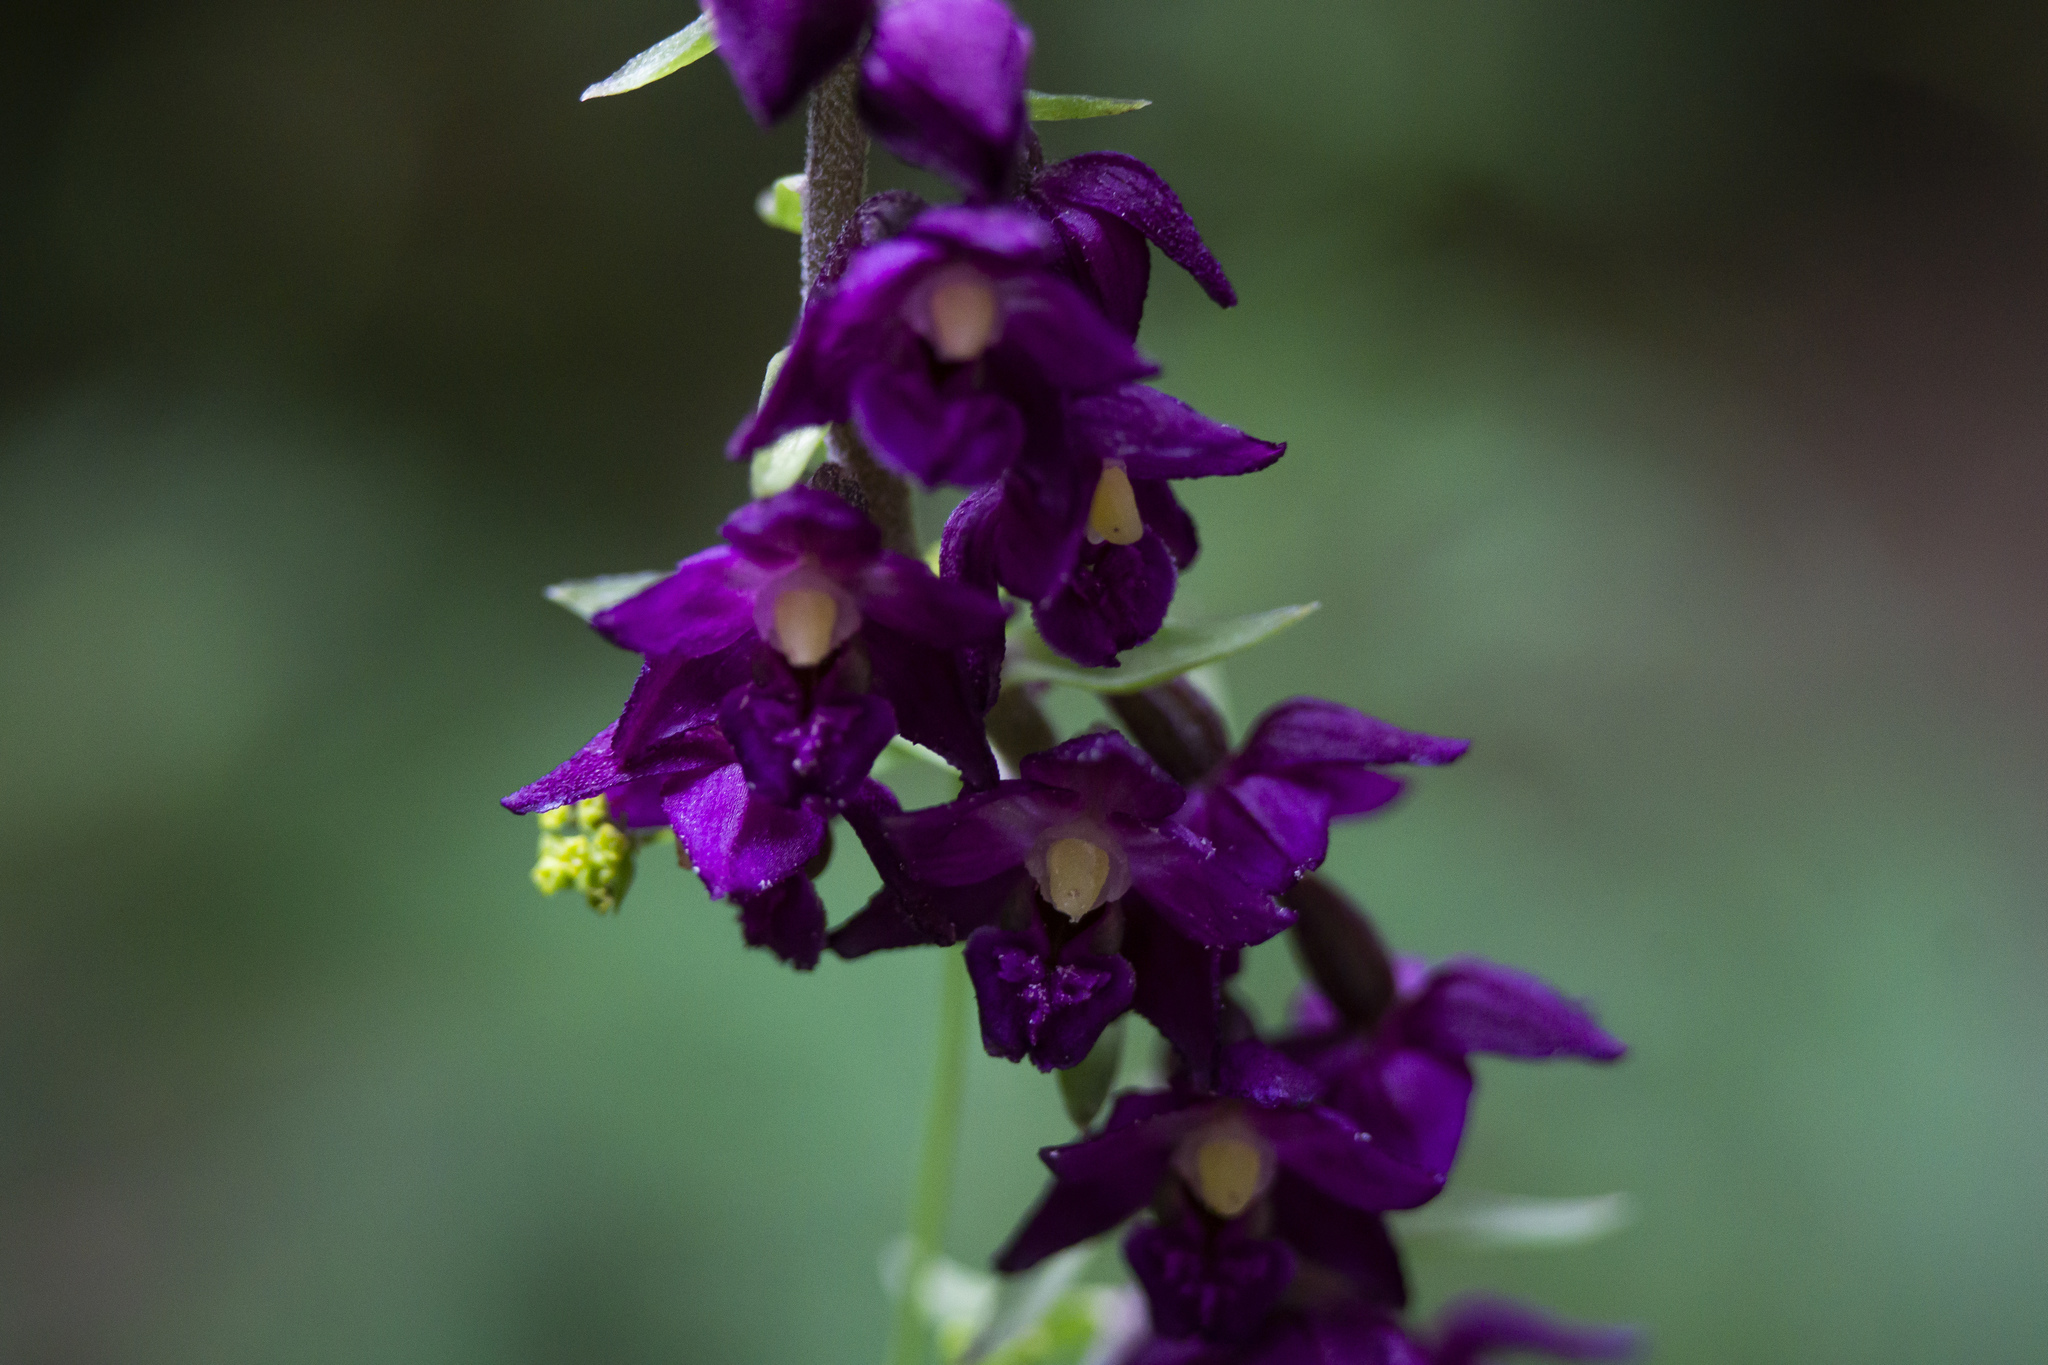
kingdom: Plantae
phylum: Tracheophyta
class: Liliopsida
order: Asparagales
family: Orchidaceae
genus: Epipactis
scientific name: Epipactis atrorubens
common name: Dark-red helleborine
